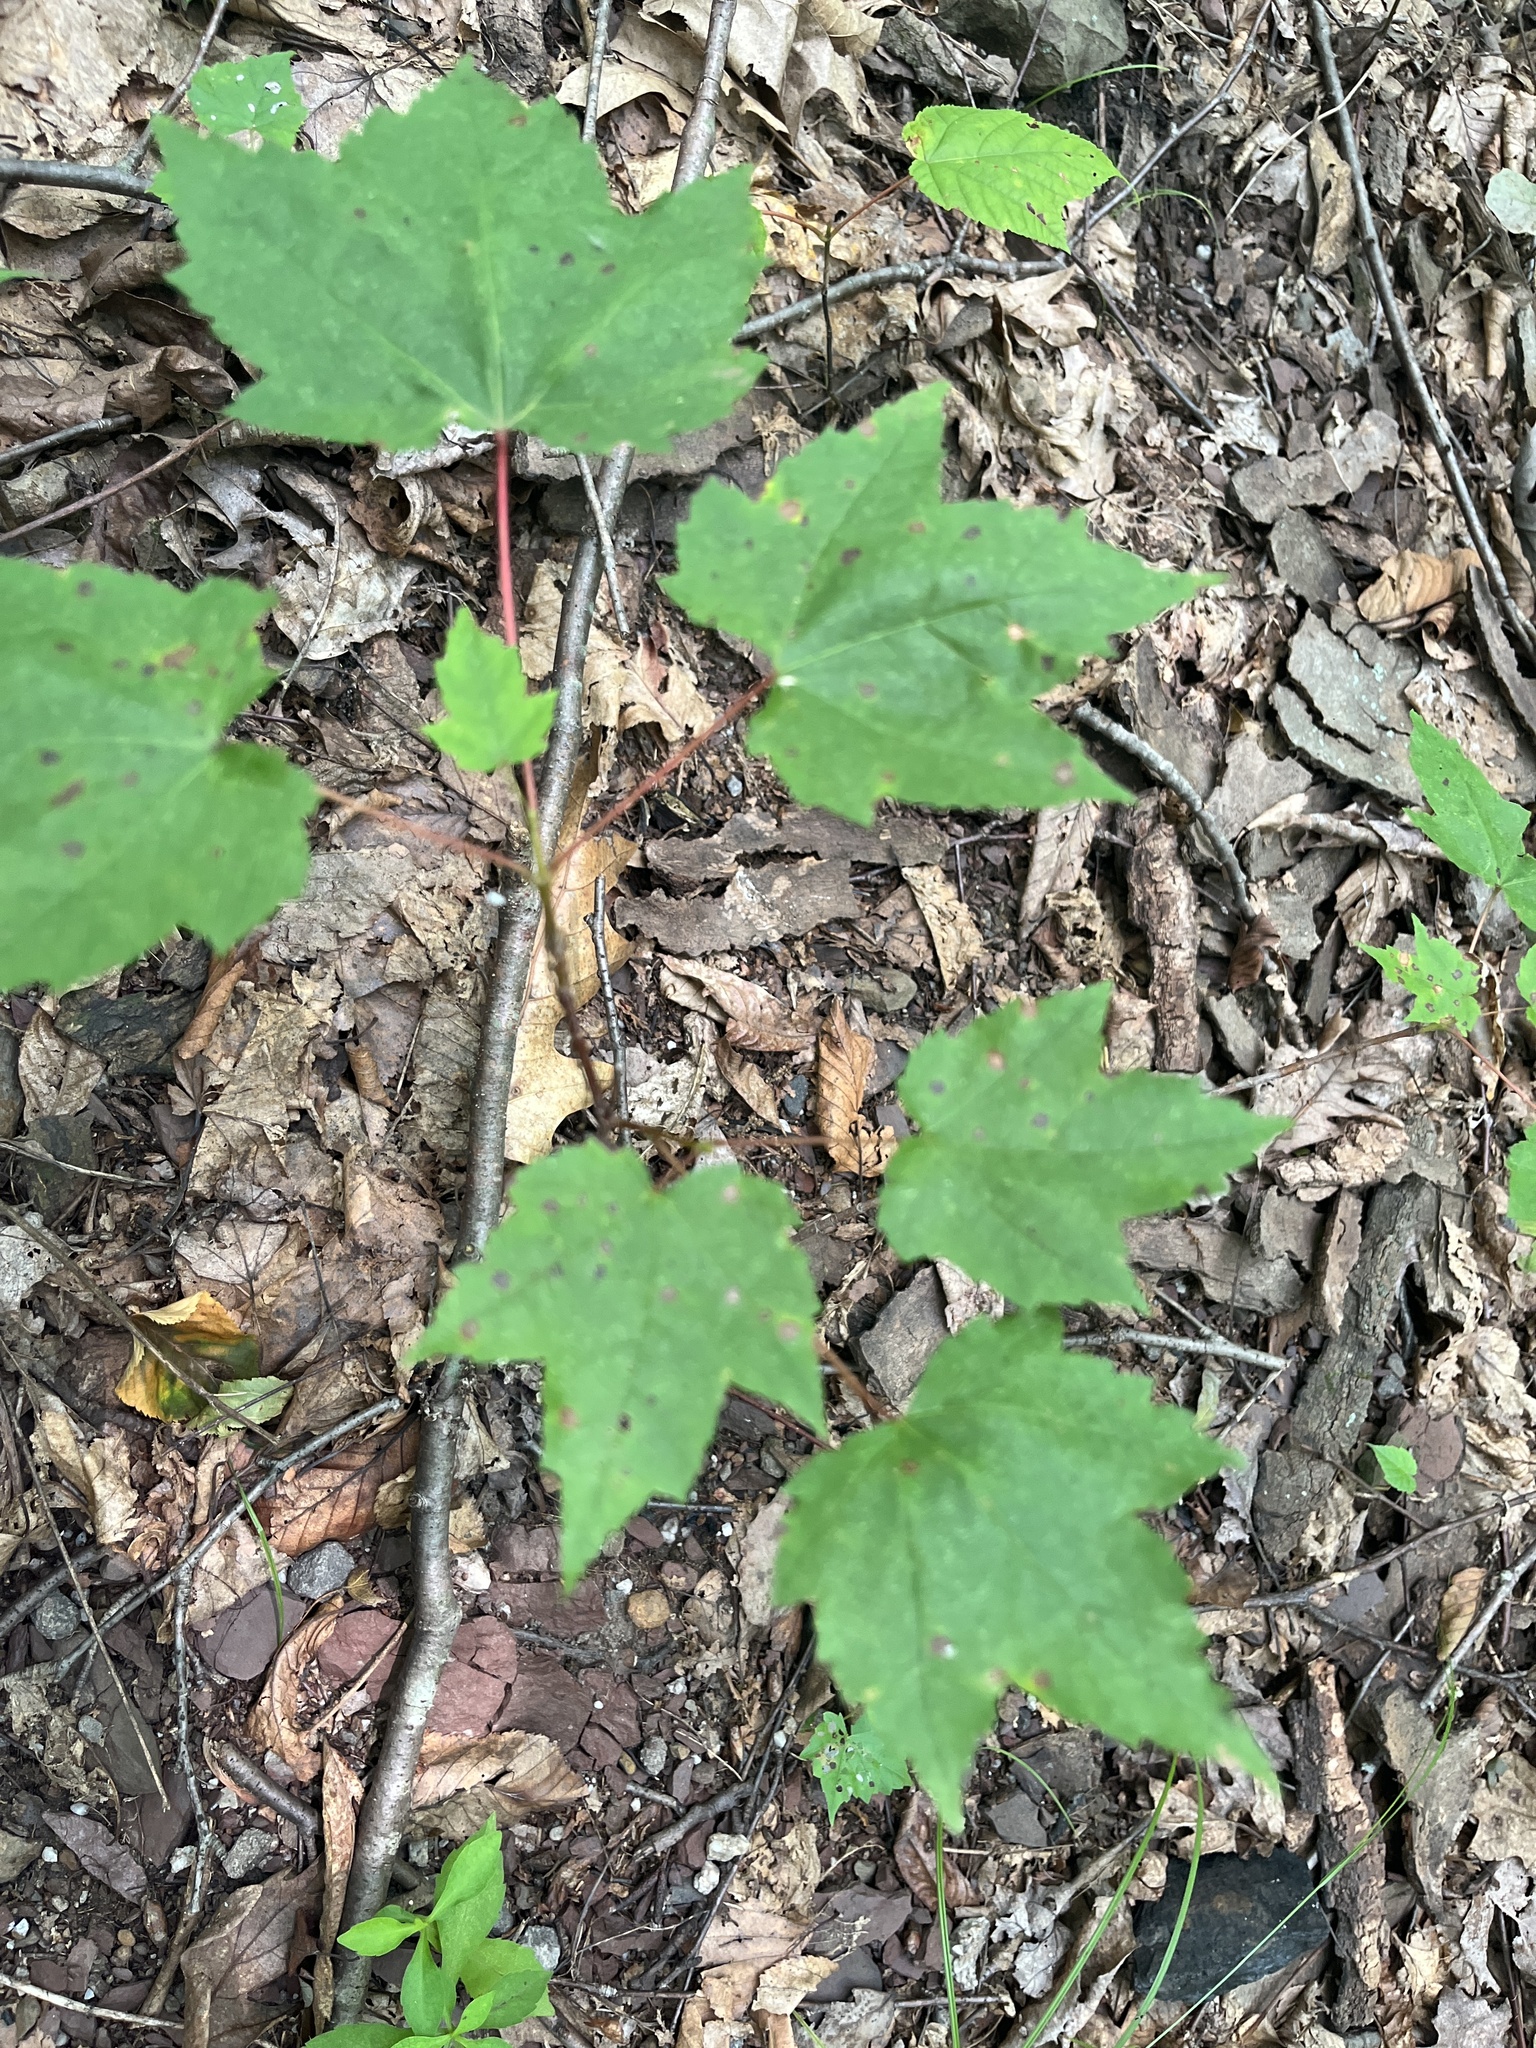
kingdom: Plantae
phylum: Tracheophyta
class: Magnoliopsida
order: Sapindales
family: Sapindaceae
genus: Acer
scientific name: Acer rubrum
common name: Red maple
